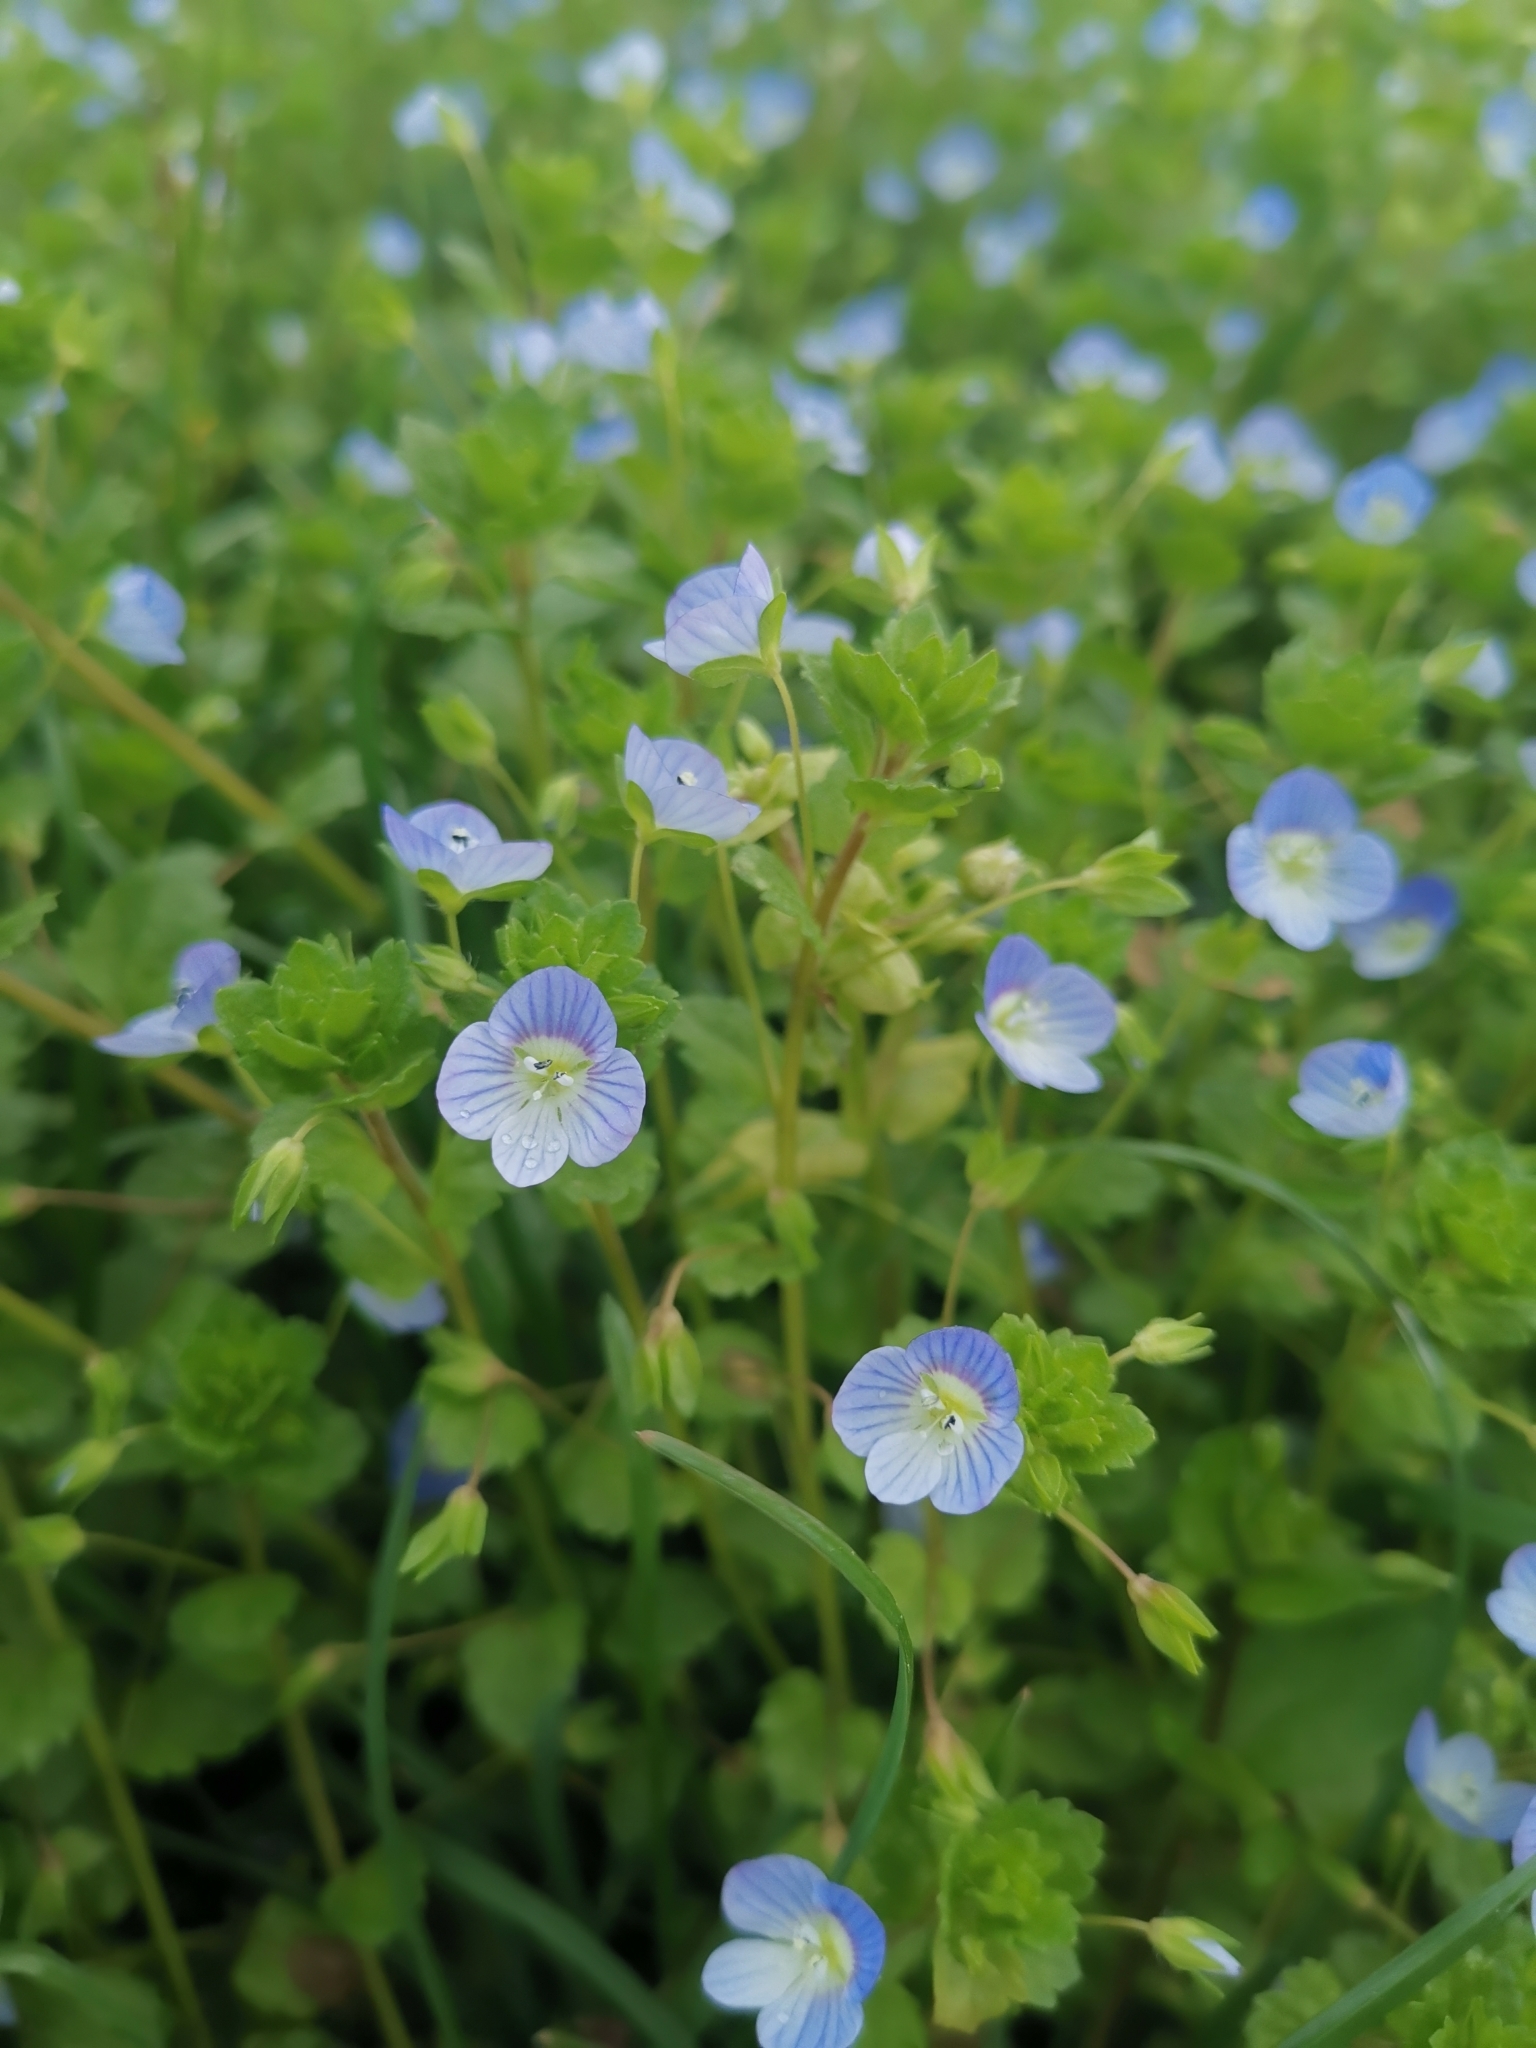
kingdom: Plantae
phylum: Tracheophyta
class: Magnoliopsida
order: Lamiales
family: Plantaginaceae
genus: Veronica
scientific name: Veronica persica
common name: Common field-speedwell
